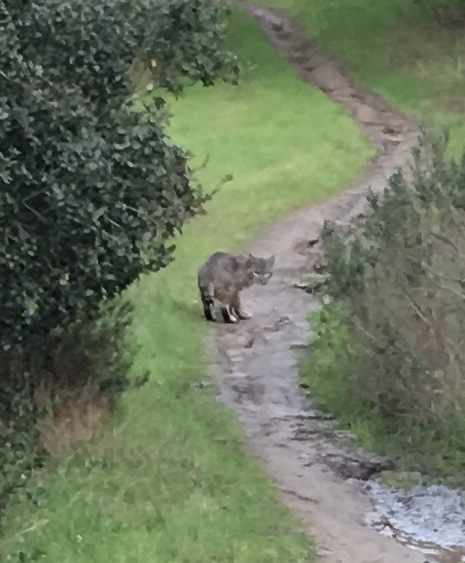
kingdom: Animalia
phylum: Chordata
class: Mammalia
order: Carnivora
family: Felidae
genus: Lynx
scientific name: Lynx rufus
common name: Bobcat
